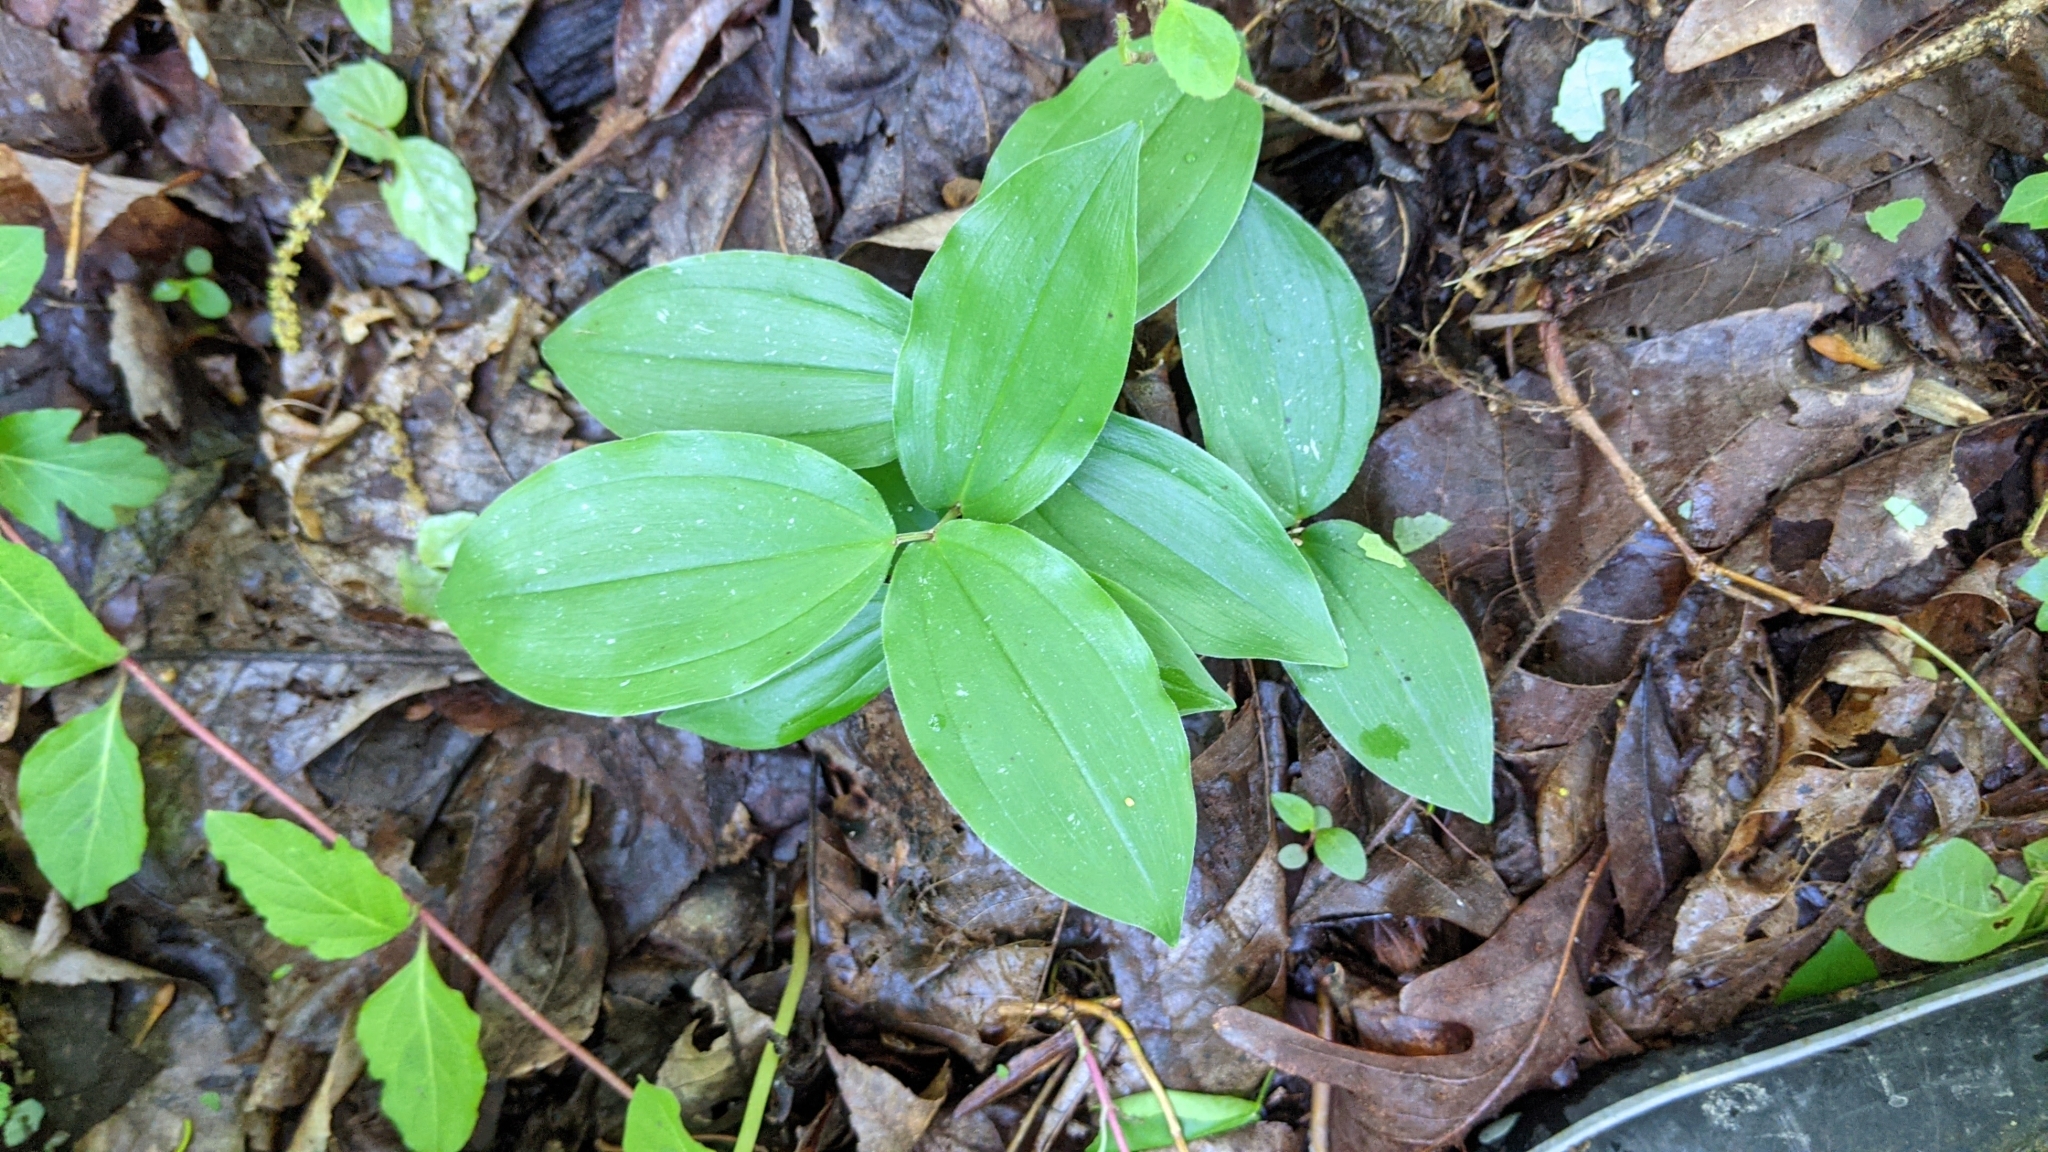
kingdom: Plantae
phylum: Tracheophyta
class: Liliopsida
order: Asparagales
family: Asparagaceae
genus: Maianthemum
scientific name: Maianthemum racemosum
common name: False spikenard
